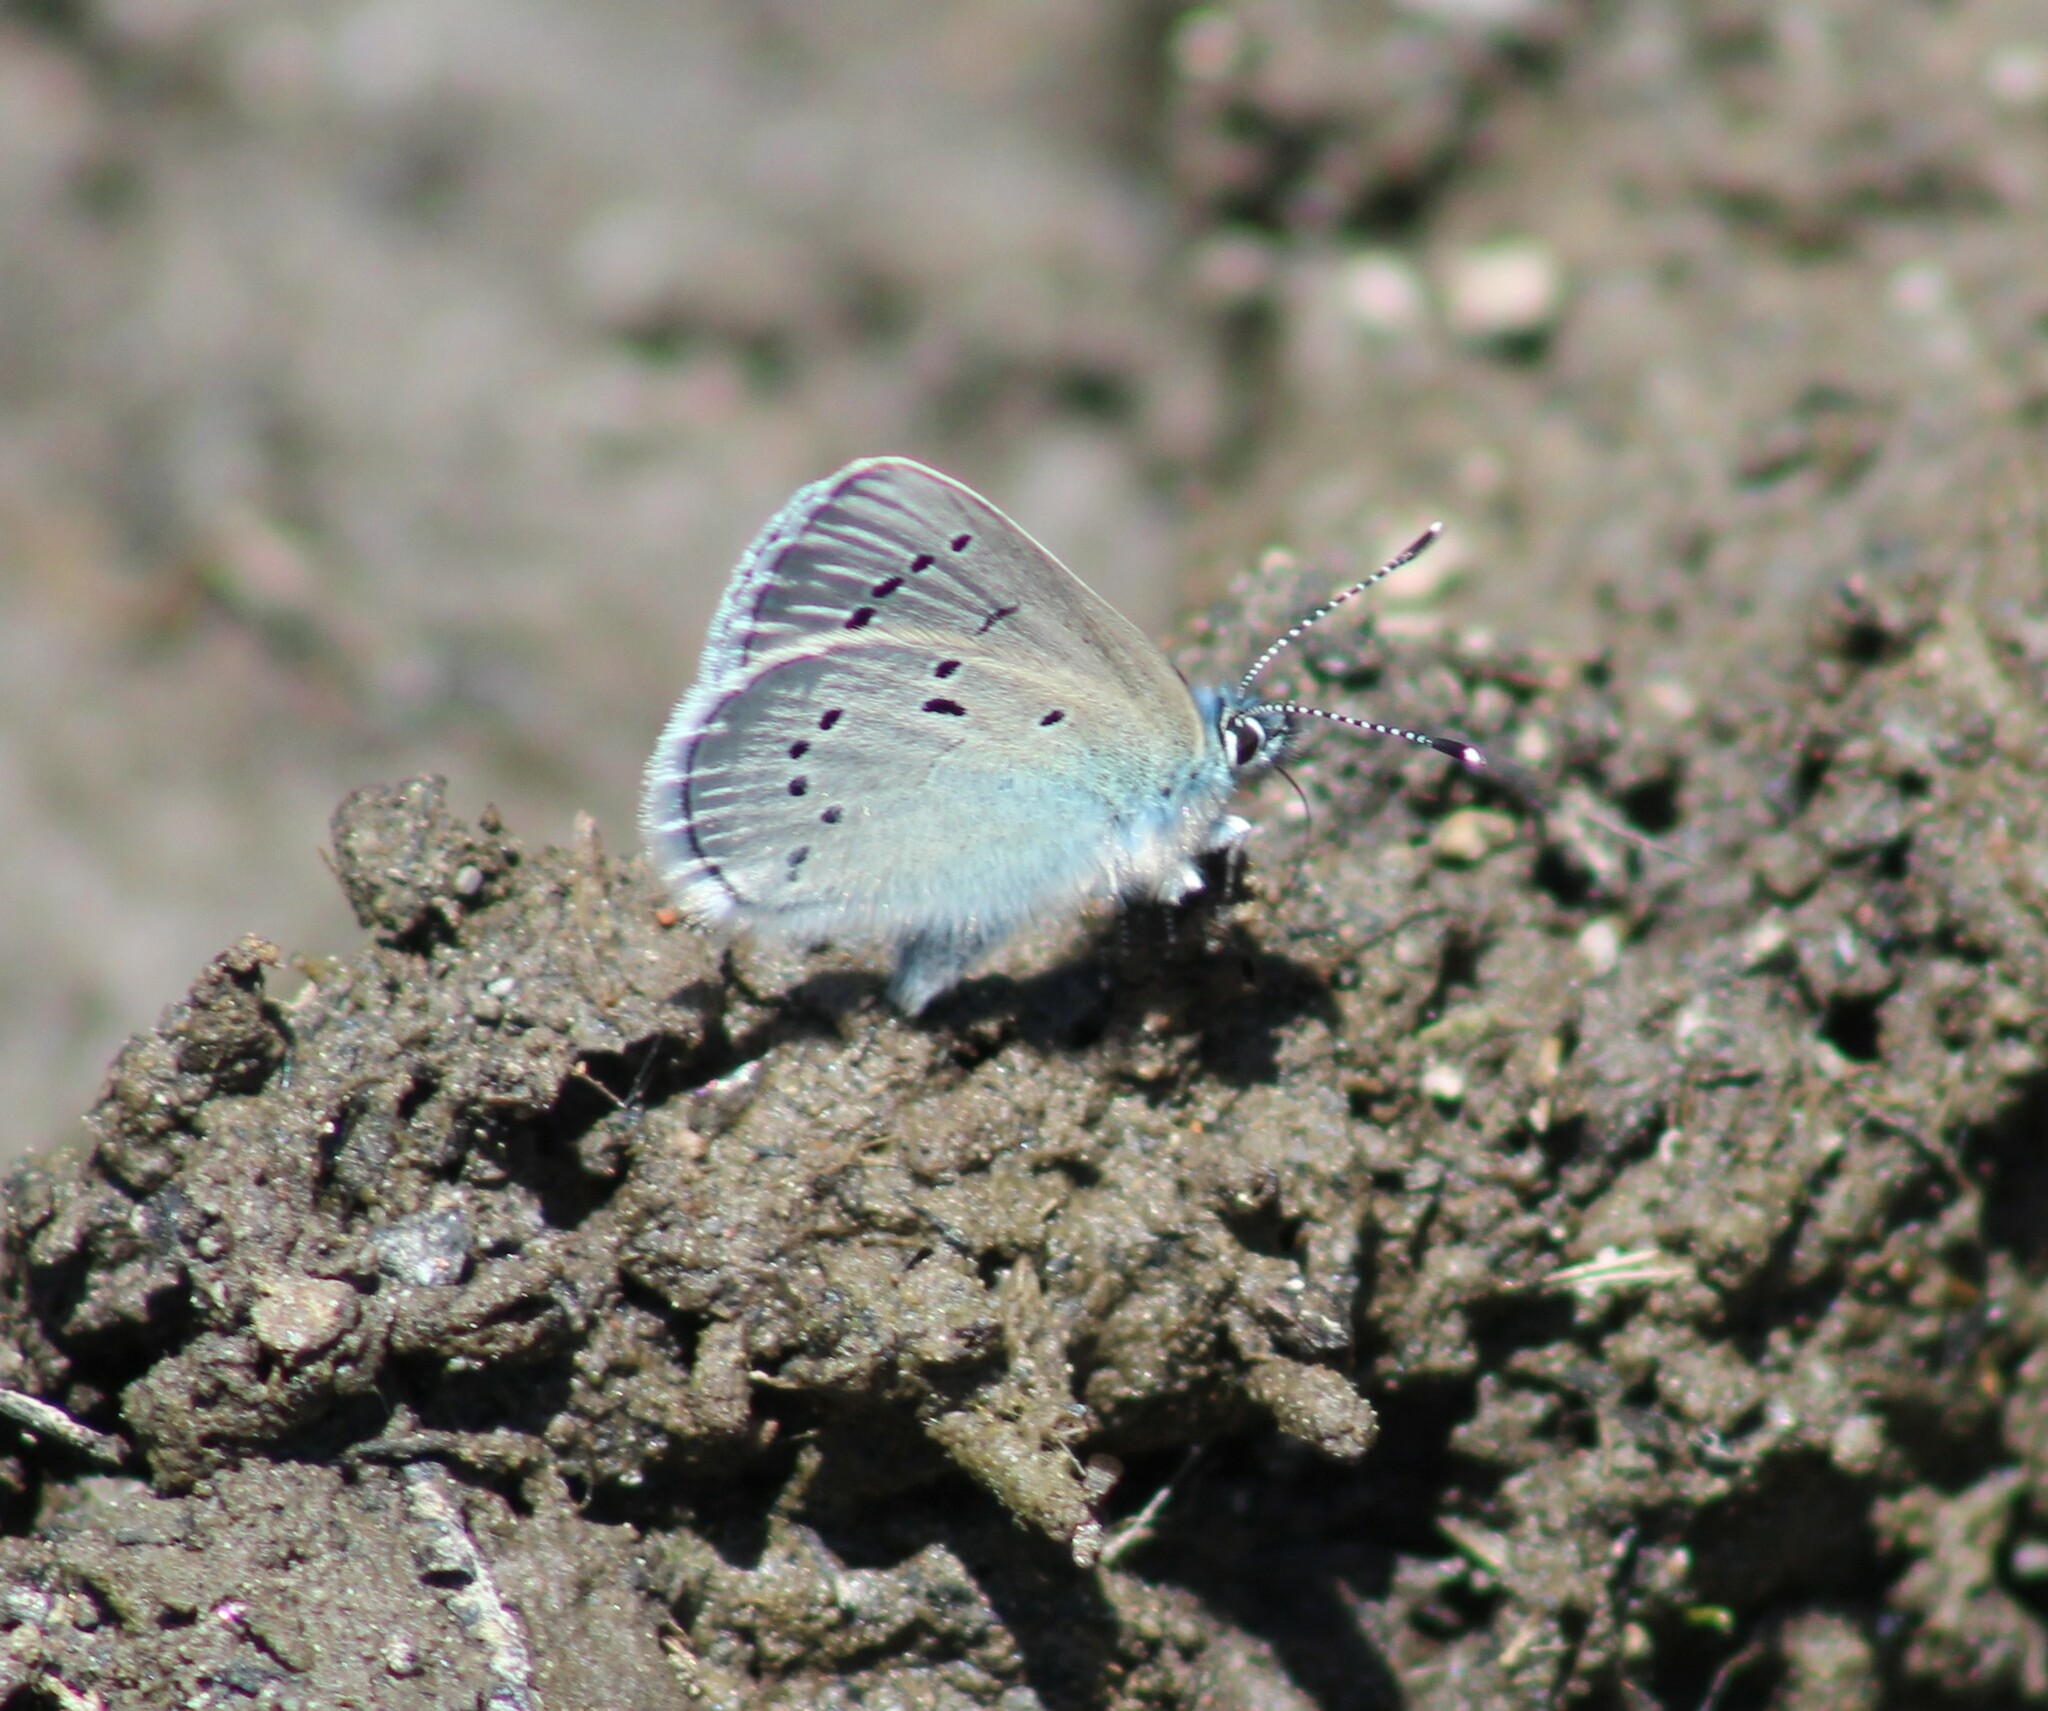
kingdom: Animalia
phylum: Arthropoda
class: Insecta
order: Lepidoptera
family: Lycaenidae
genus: Glaucopsyche
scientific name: Glaucopsyche lygdamus
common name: Silvery blue
